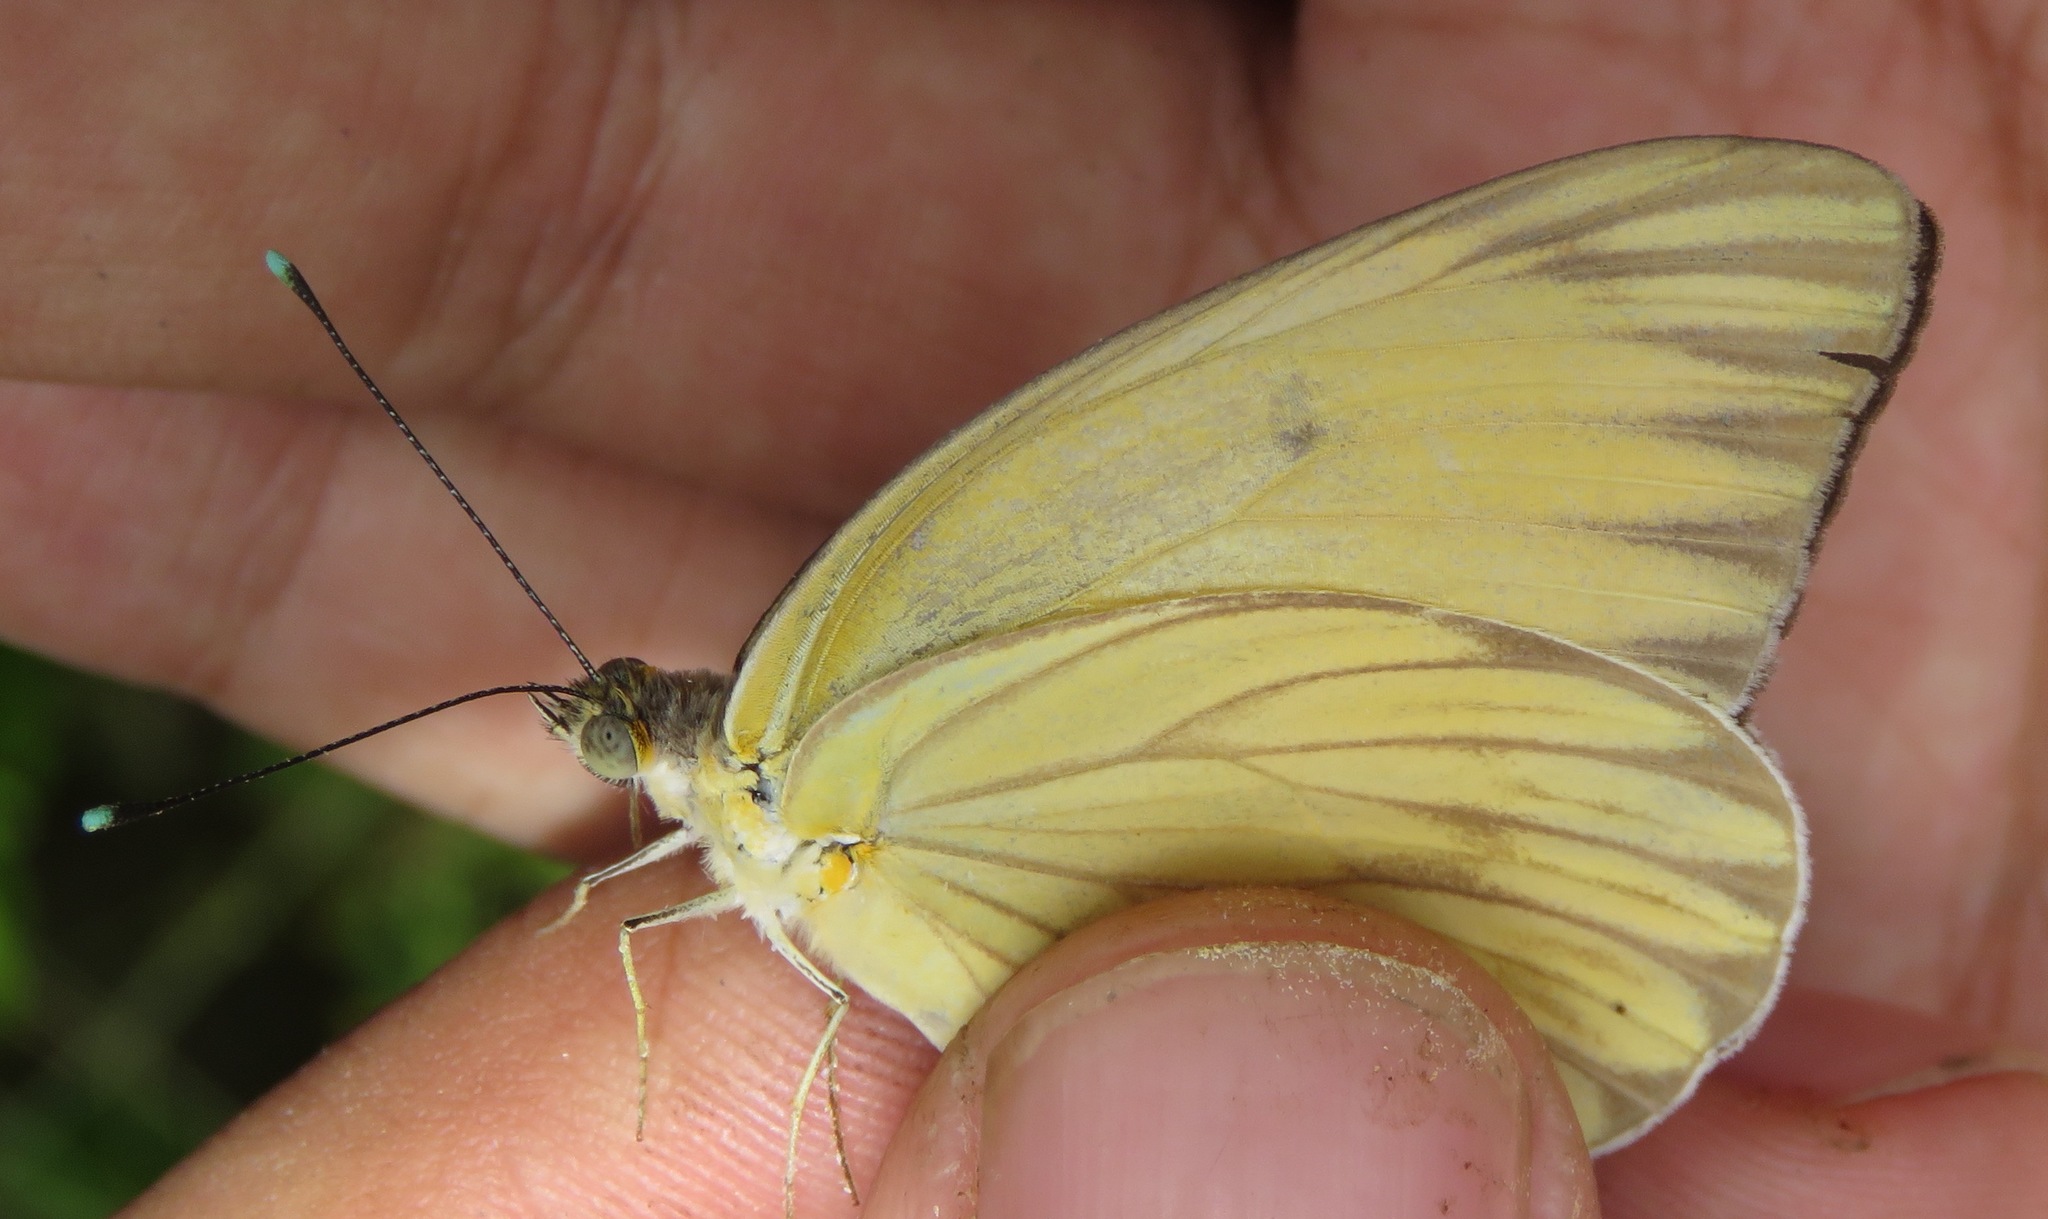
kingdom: Animalia
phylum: Arthropoda
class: Insecta
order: Lepidoptera
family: Pieridae
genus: Ascia
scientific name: Ascia monuste
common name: Great southern white
